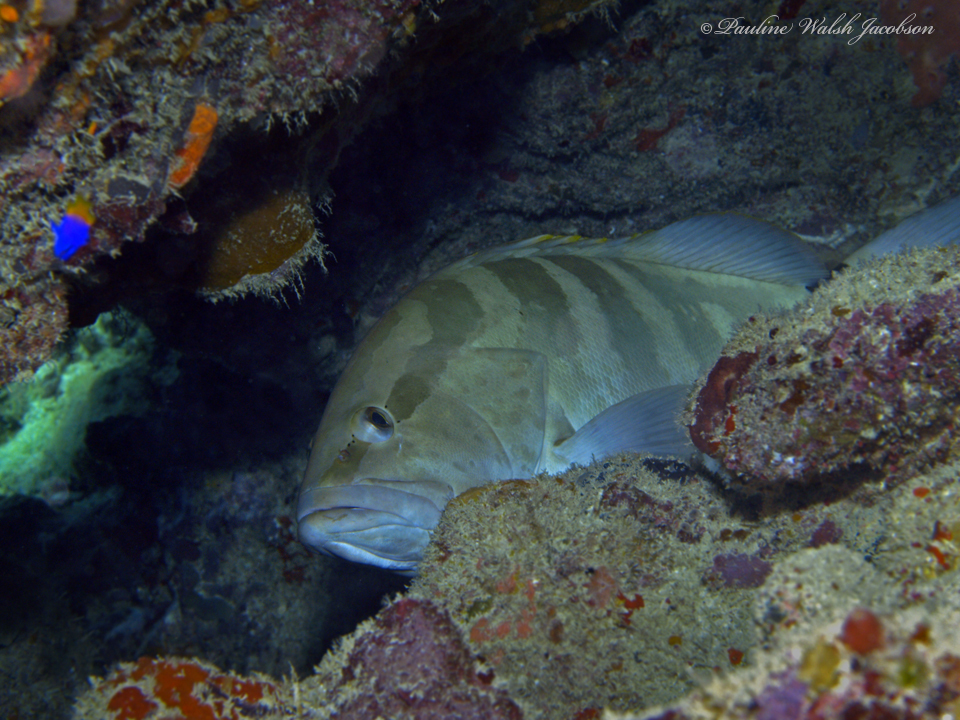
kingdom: Animalia
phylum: Chordata
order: Perciformes
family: Serranidae
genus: Epinephelus
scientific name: Epinephelus striatus
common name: Nassau grouper
